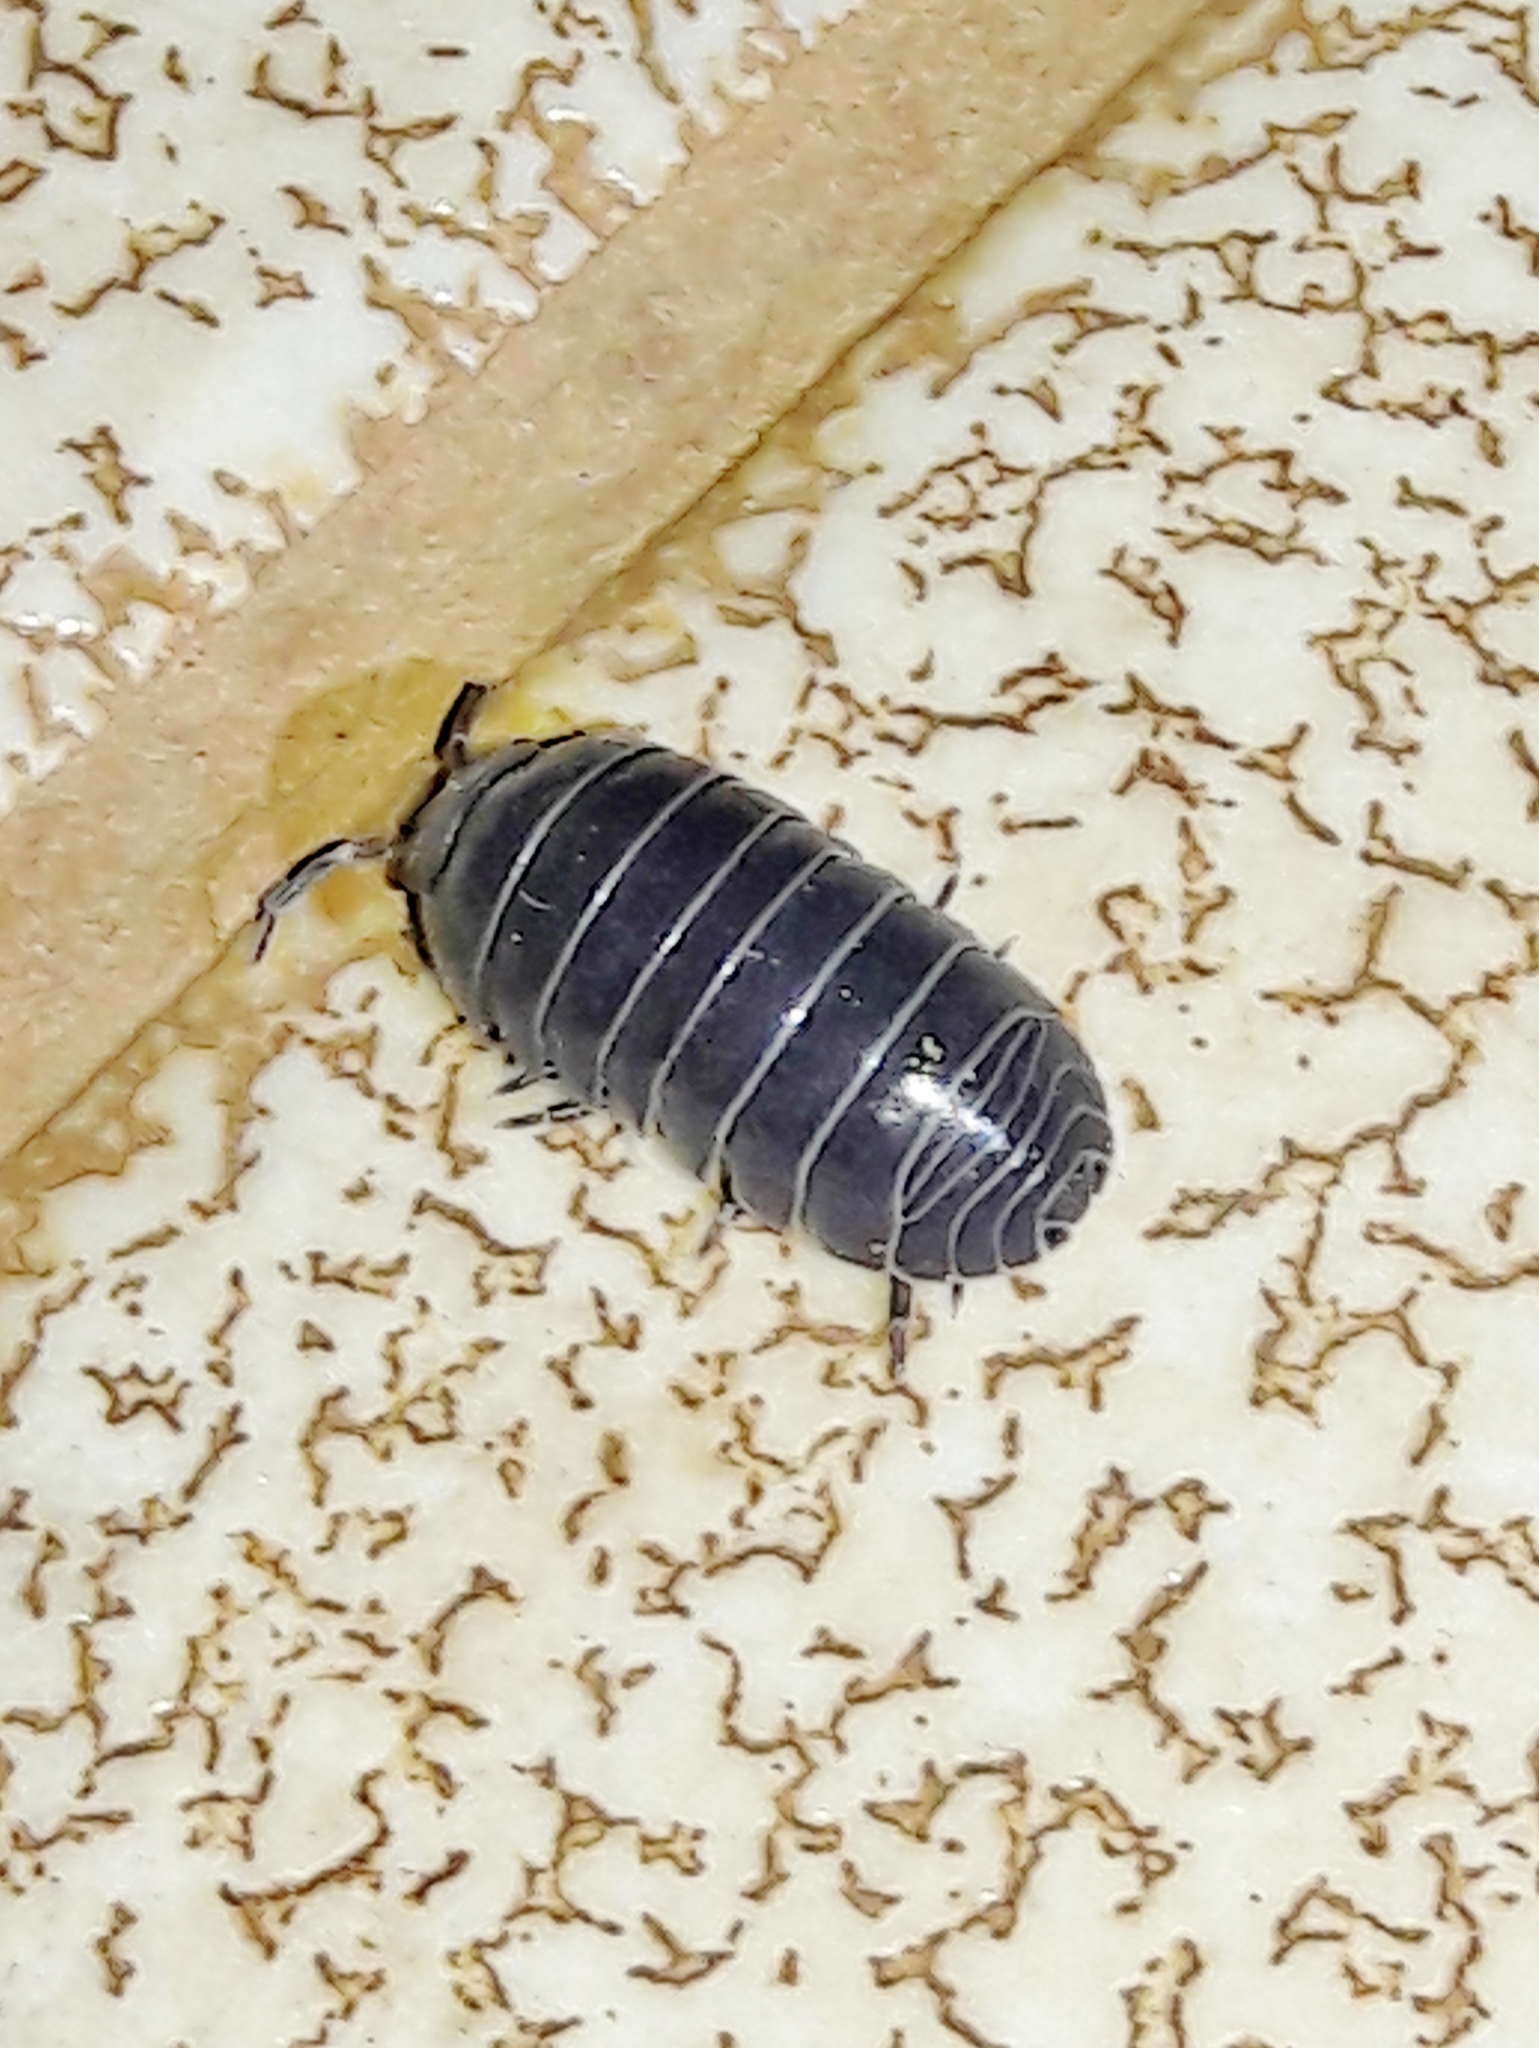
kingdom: Animalia
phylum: Arthropoda
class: Malacostraca
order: Isopoda
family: Armadillidiidae
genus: Armadillidium
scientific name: Armadillidium vulgare
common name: Common pill woodlouse
